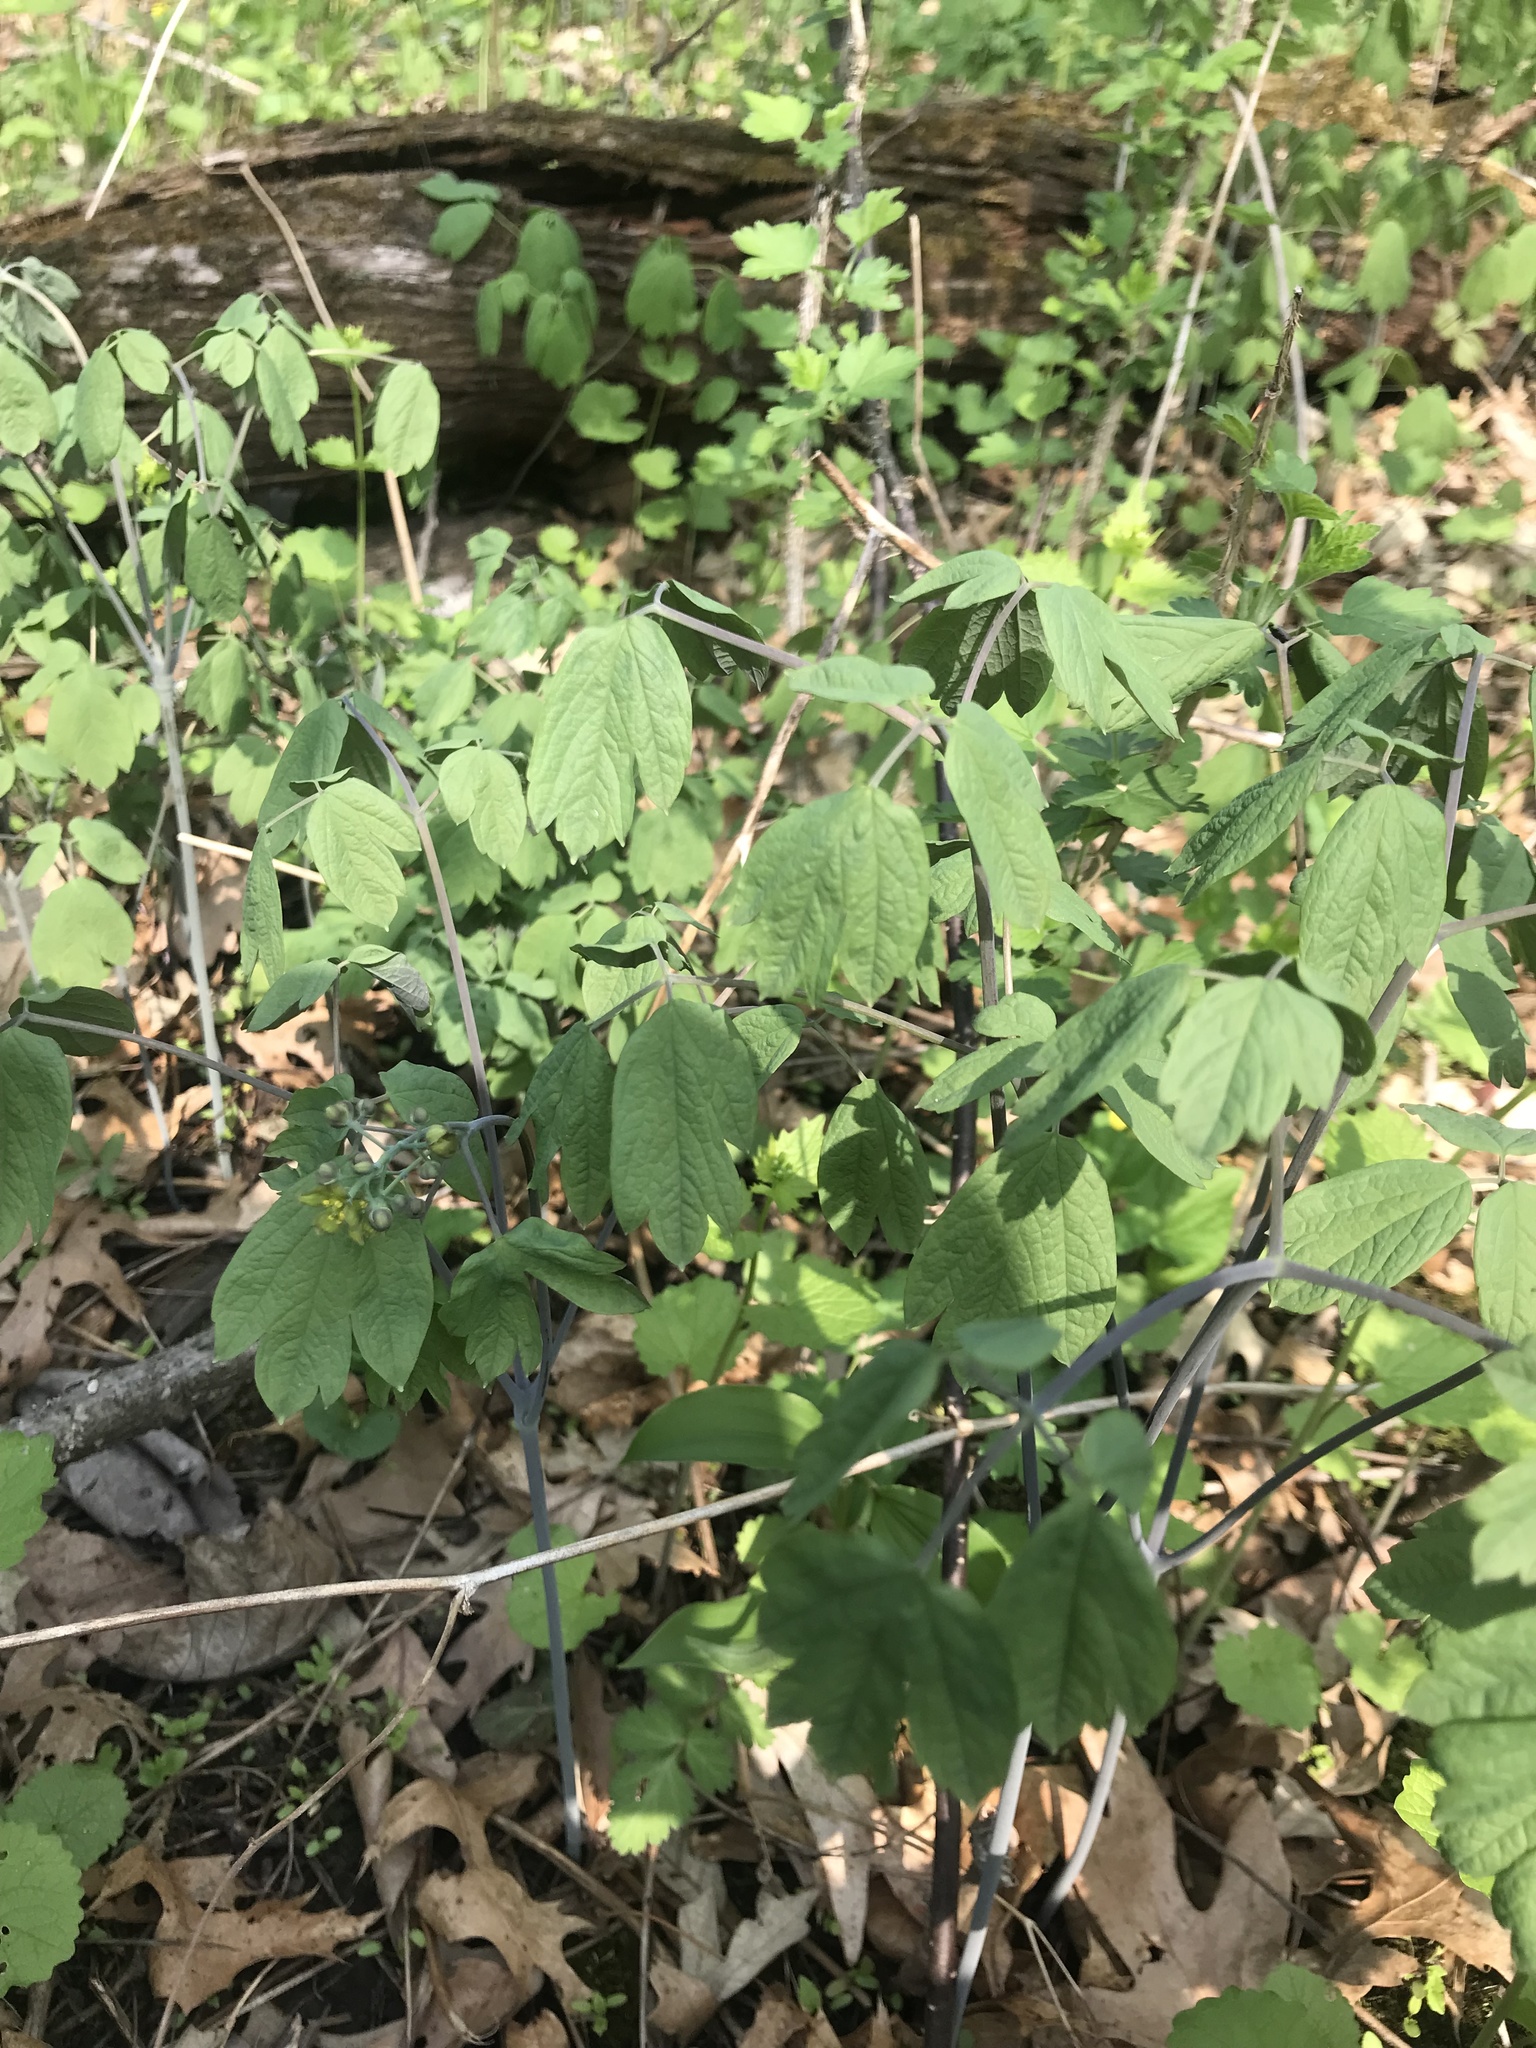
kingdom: Plantae
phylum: Tracheophyta
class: Magnoliopsida
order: Ranunculales
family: Berberidaceae
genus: Caulophyllum
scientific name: Caulophyllum thalictroides
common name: Blue cohosh
